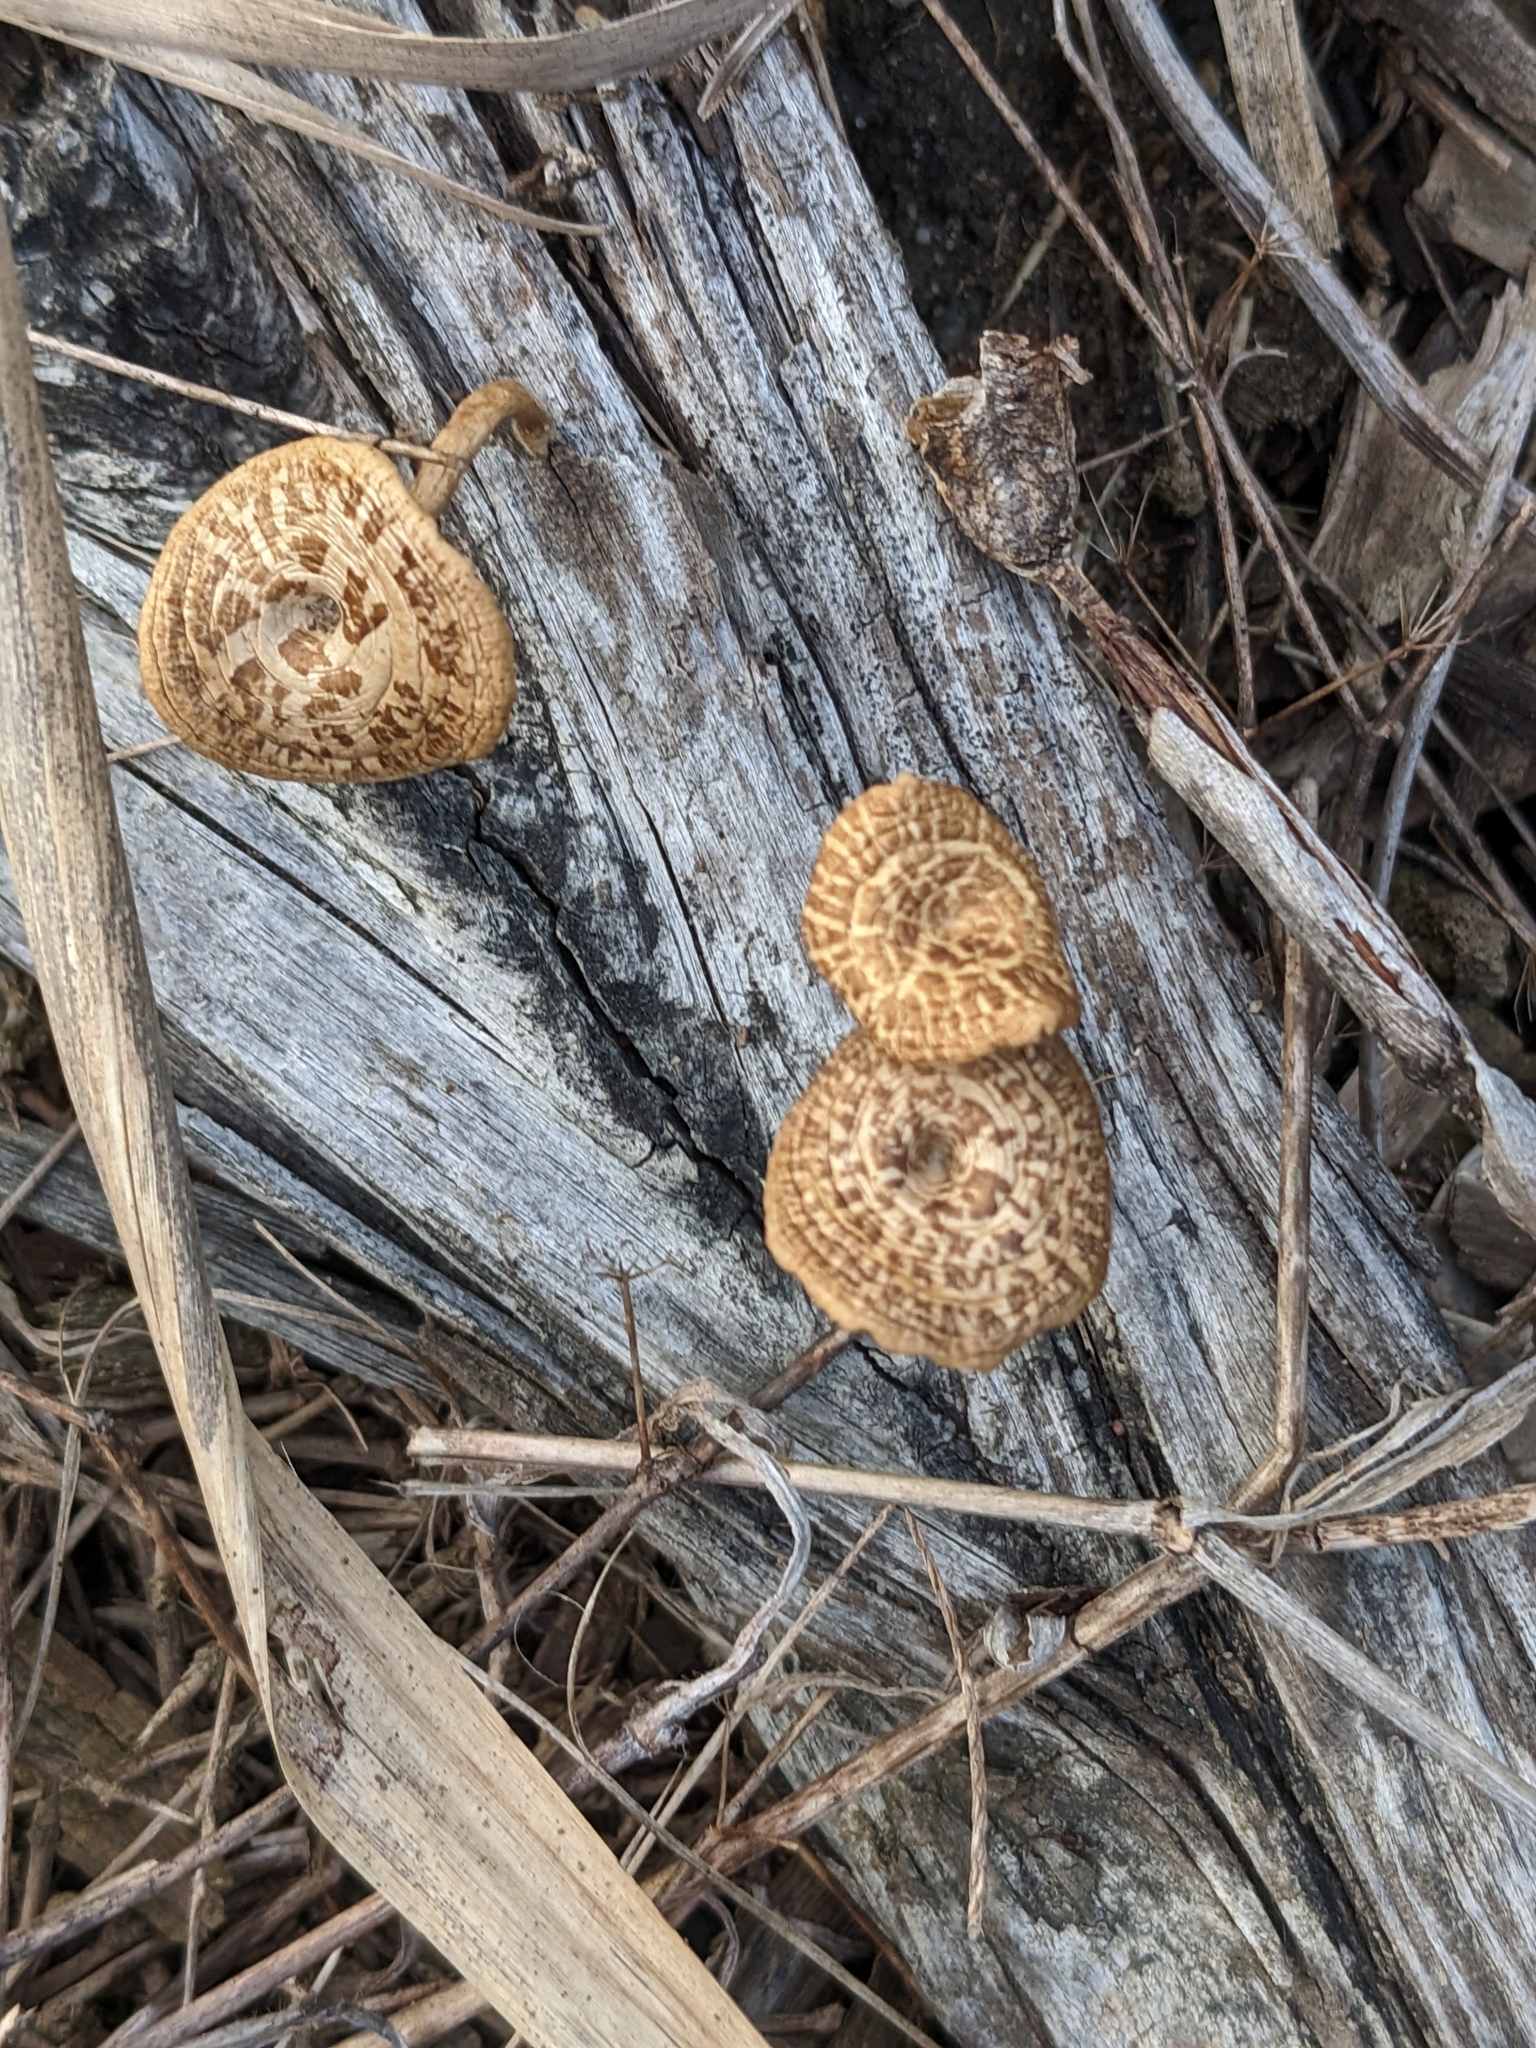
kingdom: Fungi
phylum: Basidiomycota
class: Agaricomycetes
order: Polyporales
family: Polyporaceae
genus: Lentinus
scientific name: Lentinus arcularius
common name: Spring polypore
